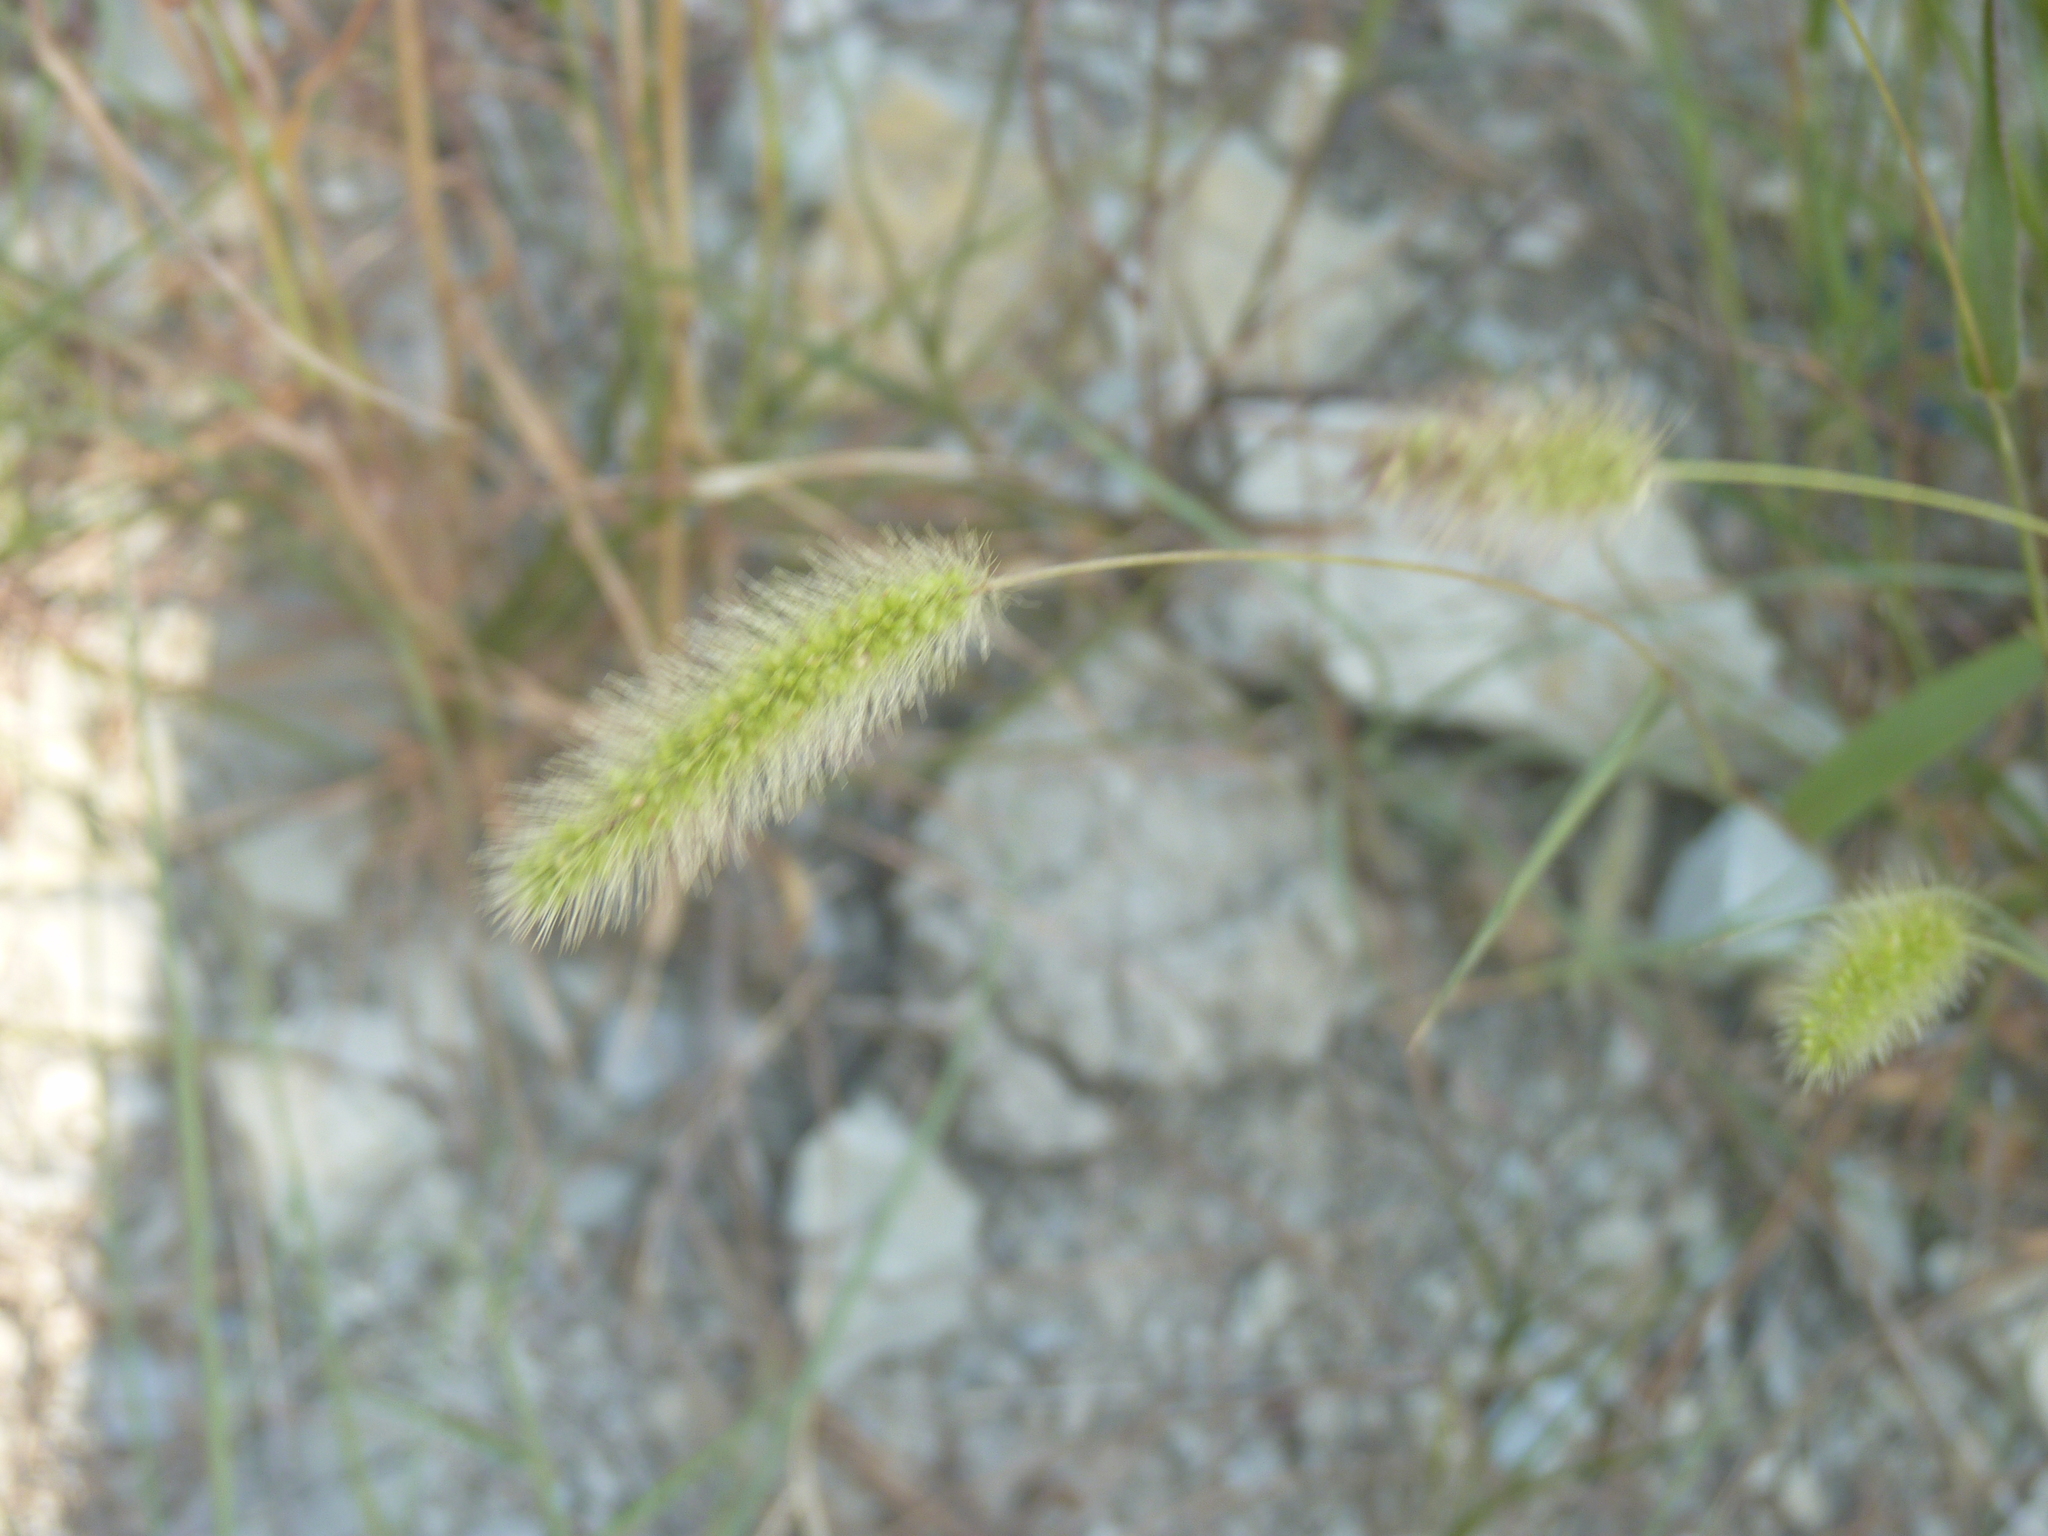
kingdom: Plantae
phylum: Tracheophyta
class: Liliopsida
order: Poales
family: Poaceae
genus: Setaria
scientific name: Setaria viridis
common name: Green bristlegrass
